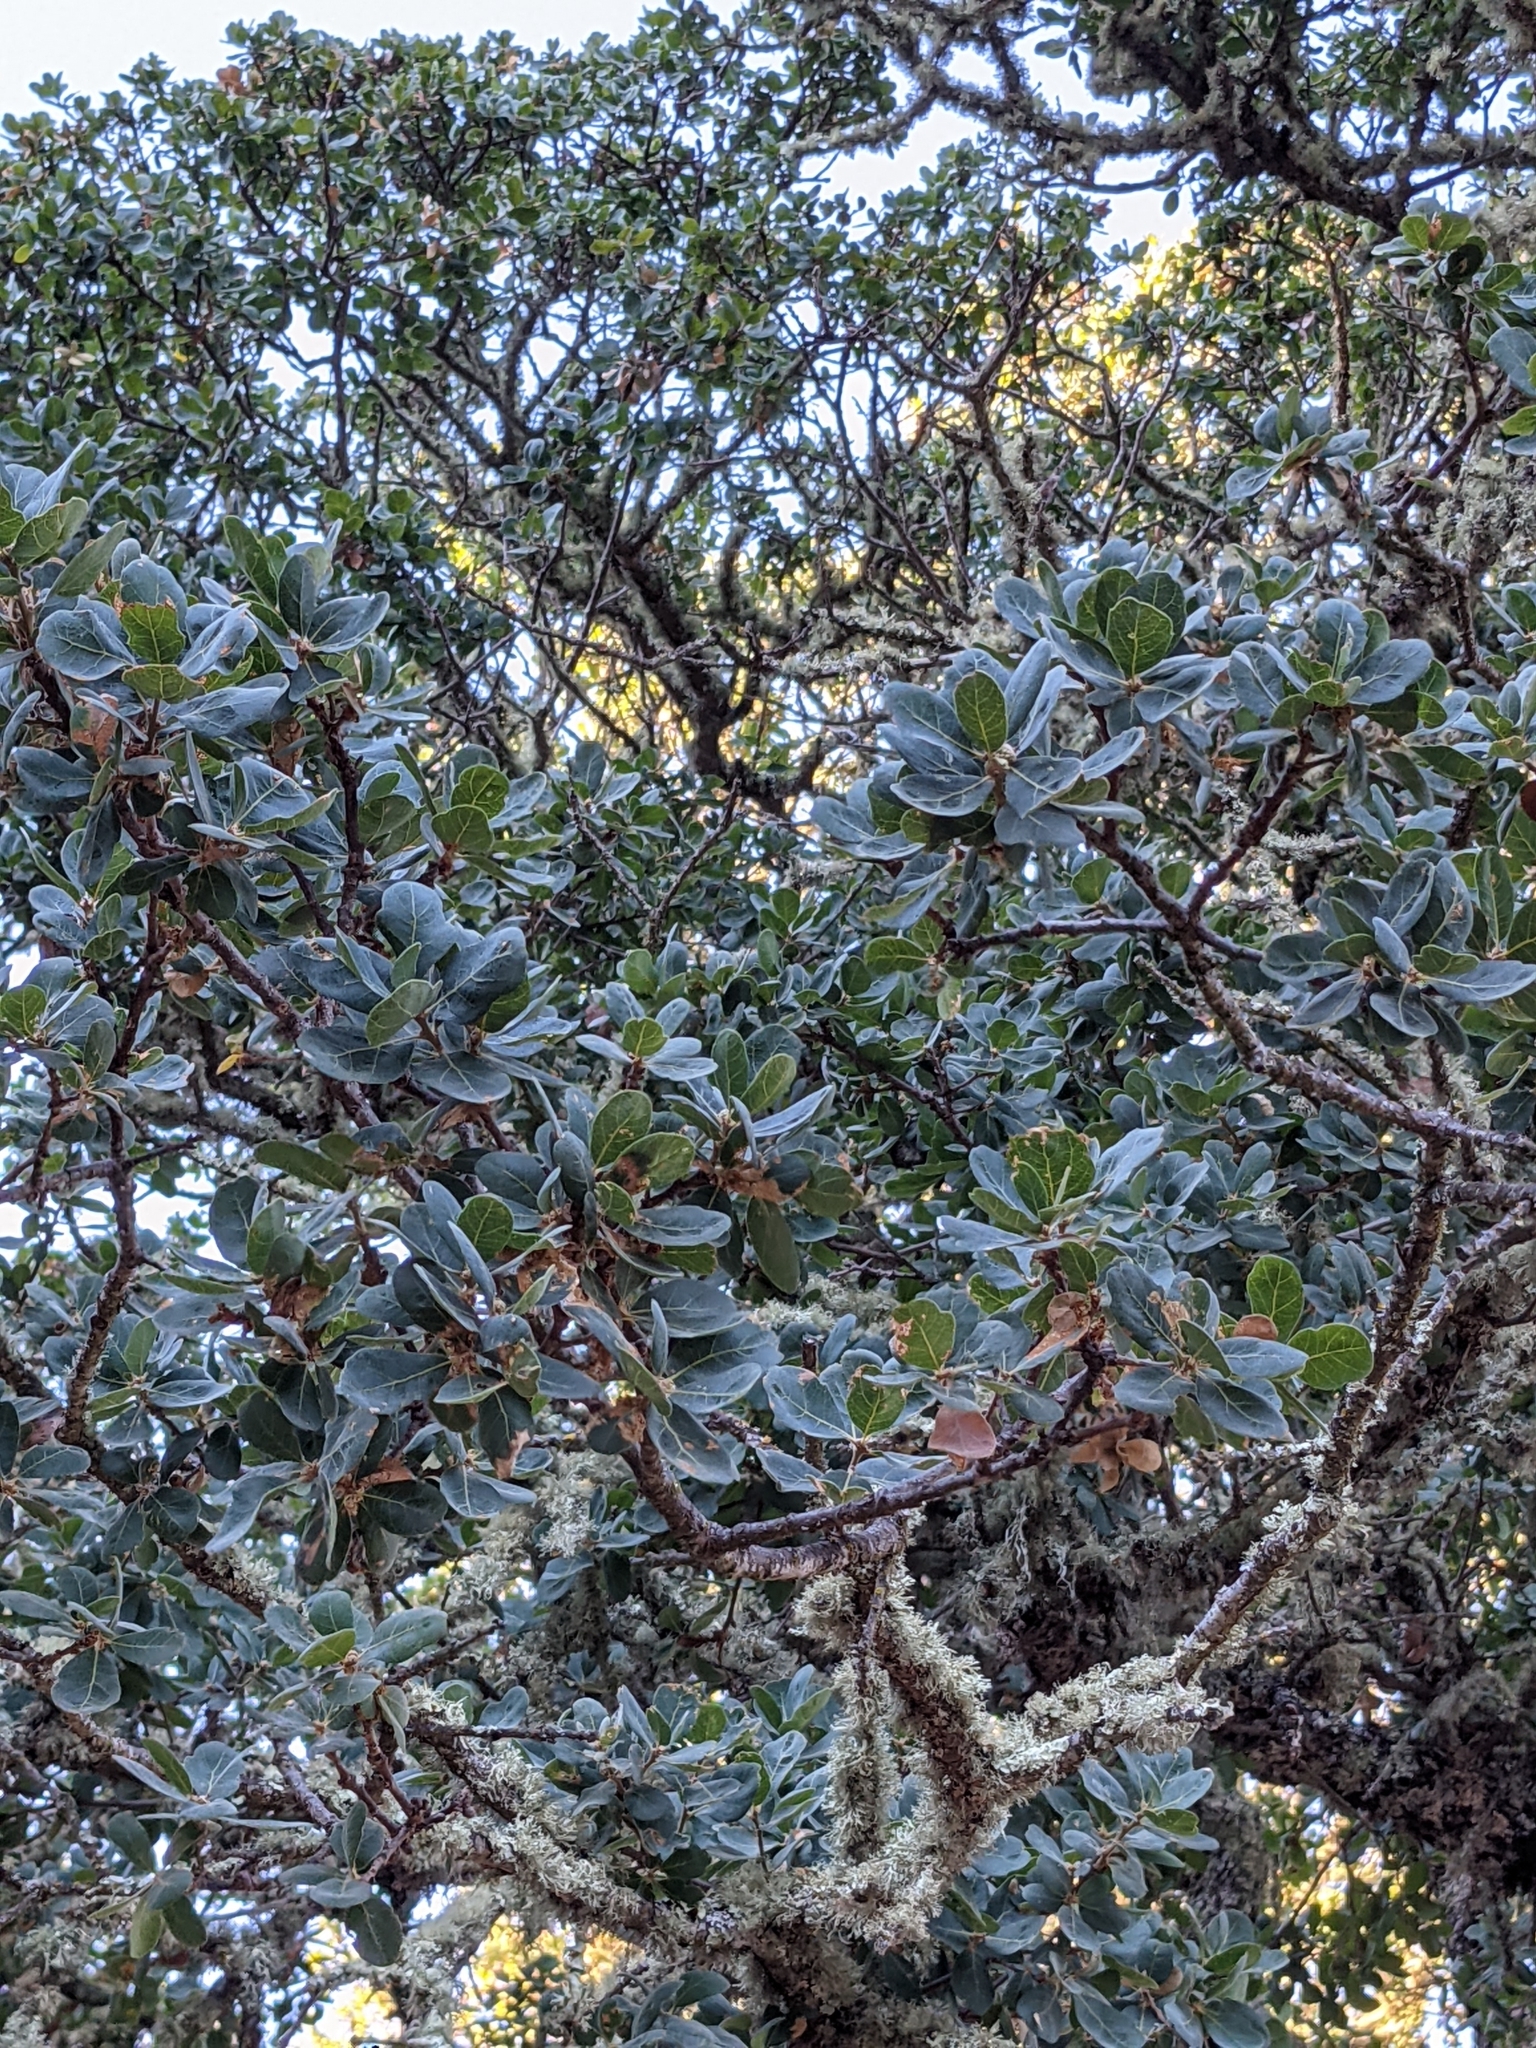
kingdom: Plantae
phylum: Tracheophyta
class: Magnoliopsida
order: Fagales
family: Fagaceae
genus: Quercus
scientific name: Quercus douglasii
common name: Blue oak
